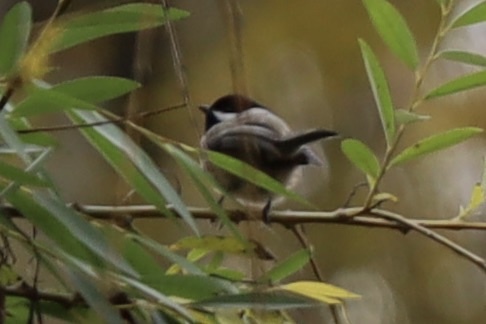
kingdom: Animalia
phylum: Chordata
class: Aves
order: Passeriformes
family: Paridae
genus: Poecile
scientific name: Poecile atricapillus
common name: Black-capped chickadee
